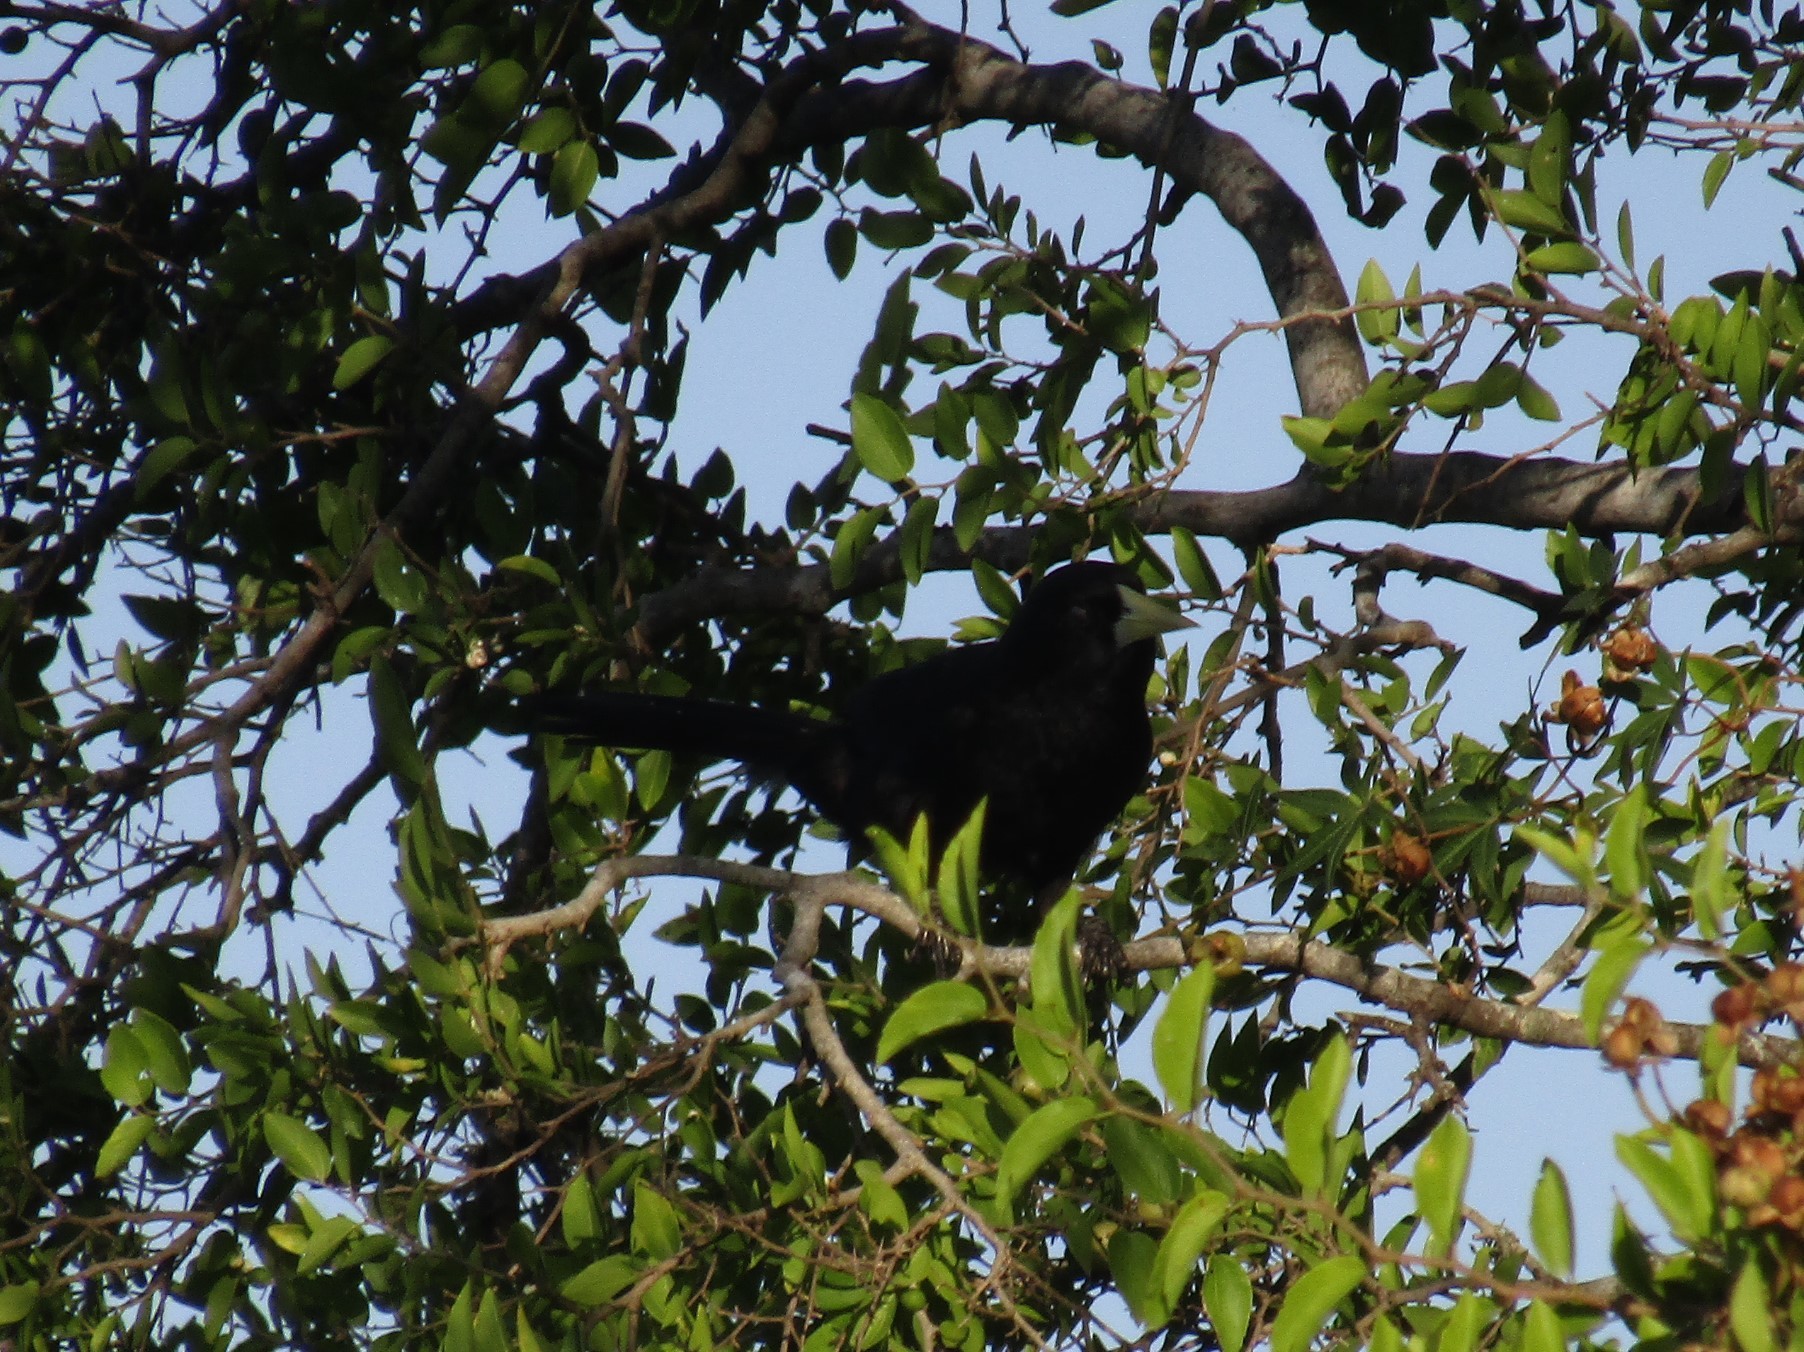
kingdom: Animalia
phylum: Chordata
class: Aves
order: Passeriformes
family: Icteridae
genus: Cacicus
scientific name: Cacicus solitarius
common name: Solitary cacique
